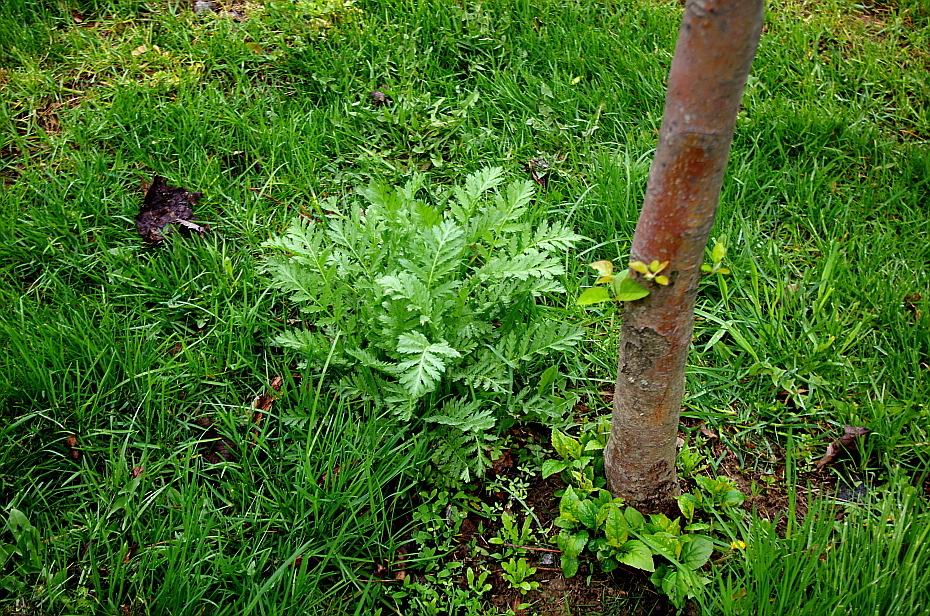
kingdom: Plantae
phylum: Tracheophyta
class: Magnoliopsida
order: Asterales
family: Asteraceae
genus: Tanacetum
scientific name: Tanacetum vulgare
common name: Common tansy
